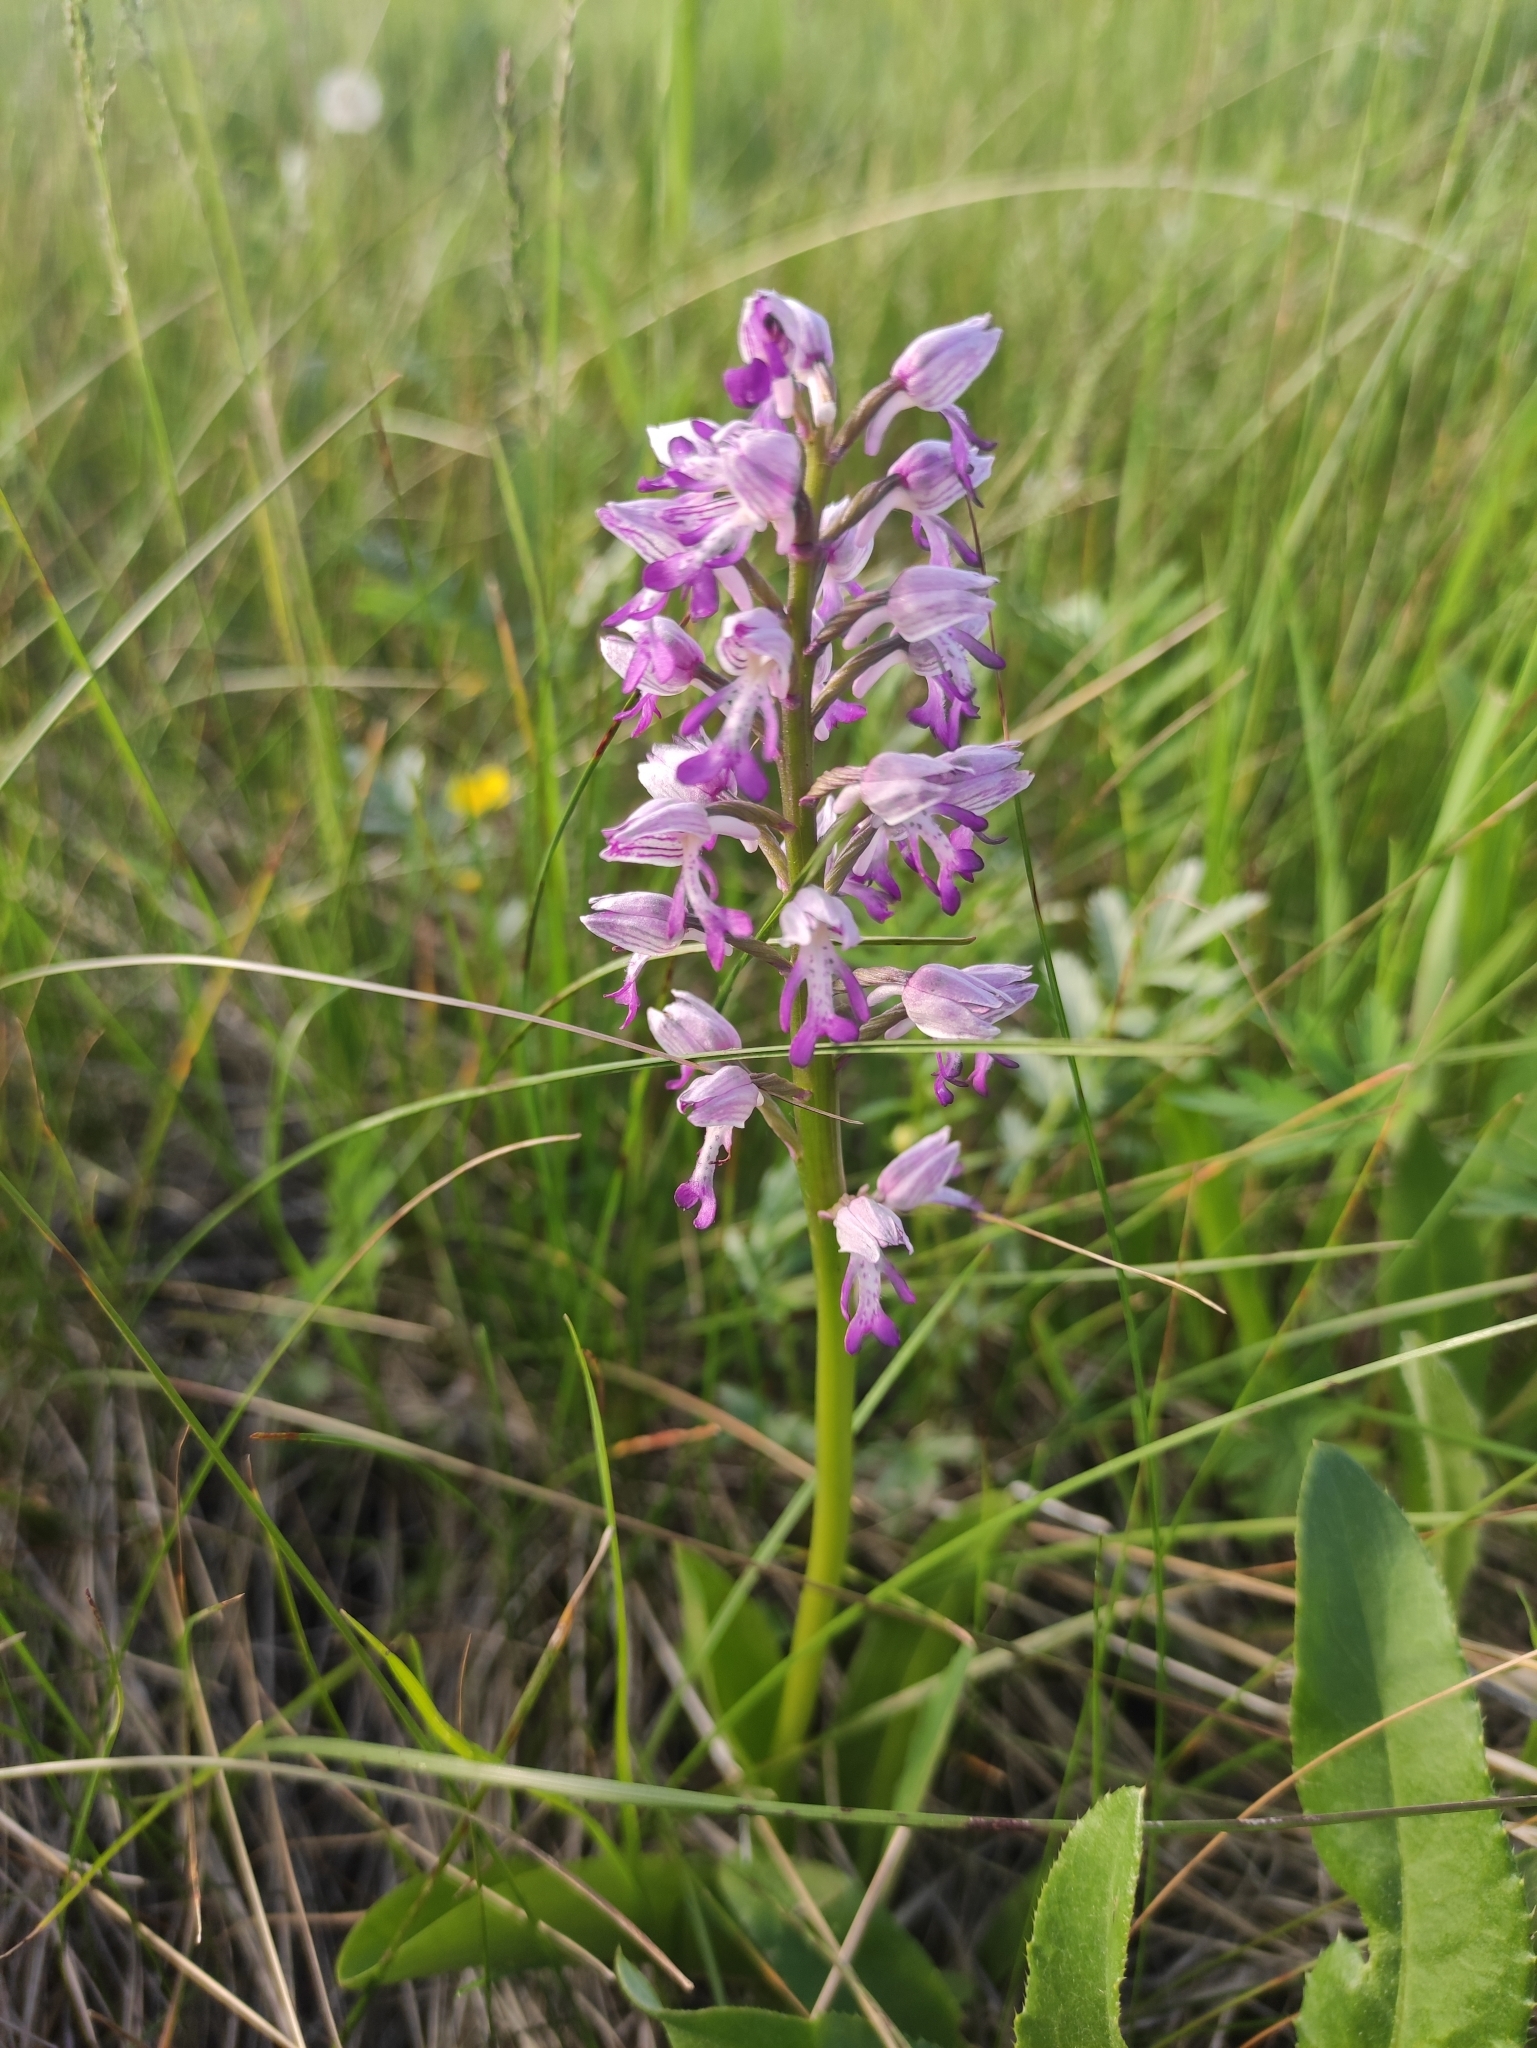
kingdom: Plantae
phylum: Tracheophyta
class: Liliopsida
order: Asparagales
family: Orchidaceae
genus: Orchis
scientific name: Orchis militaris
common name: Military orchid
